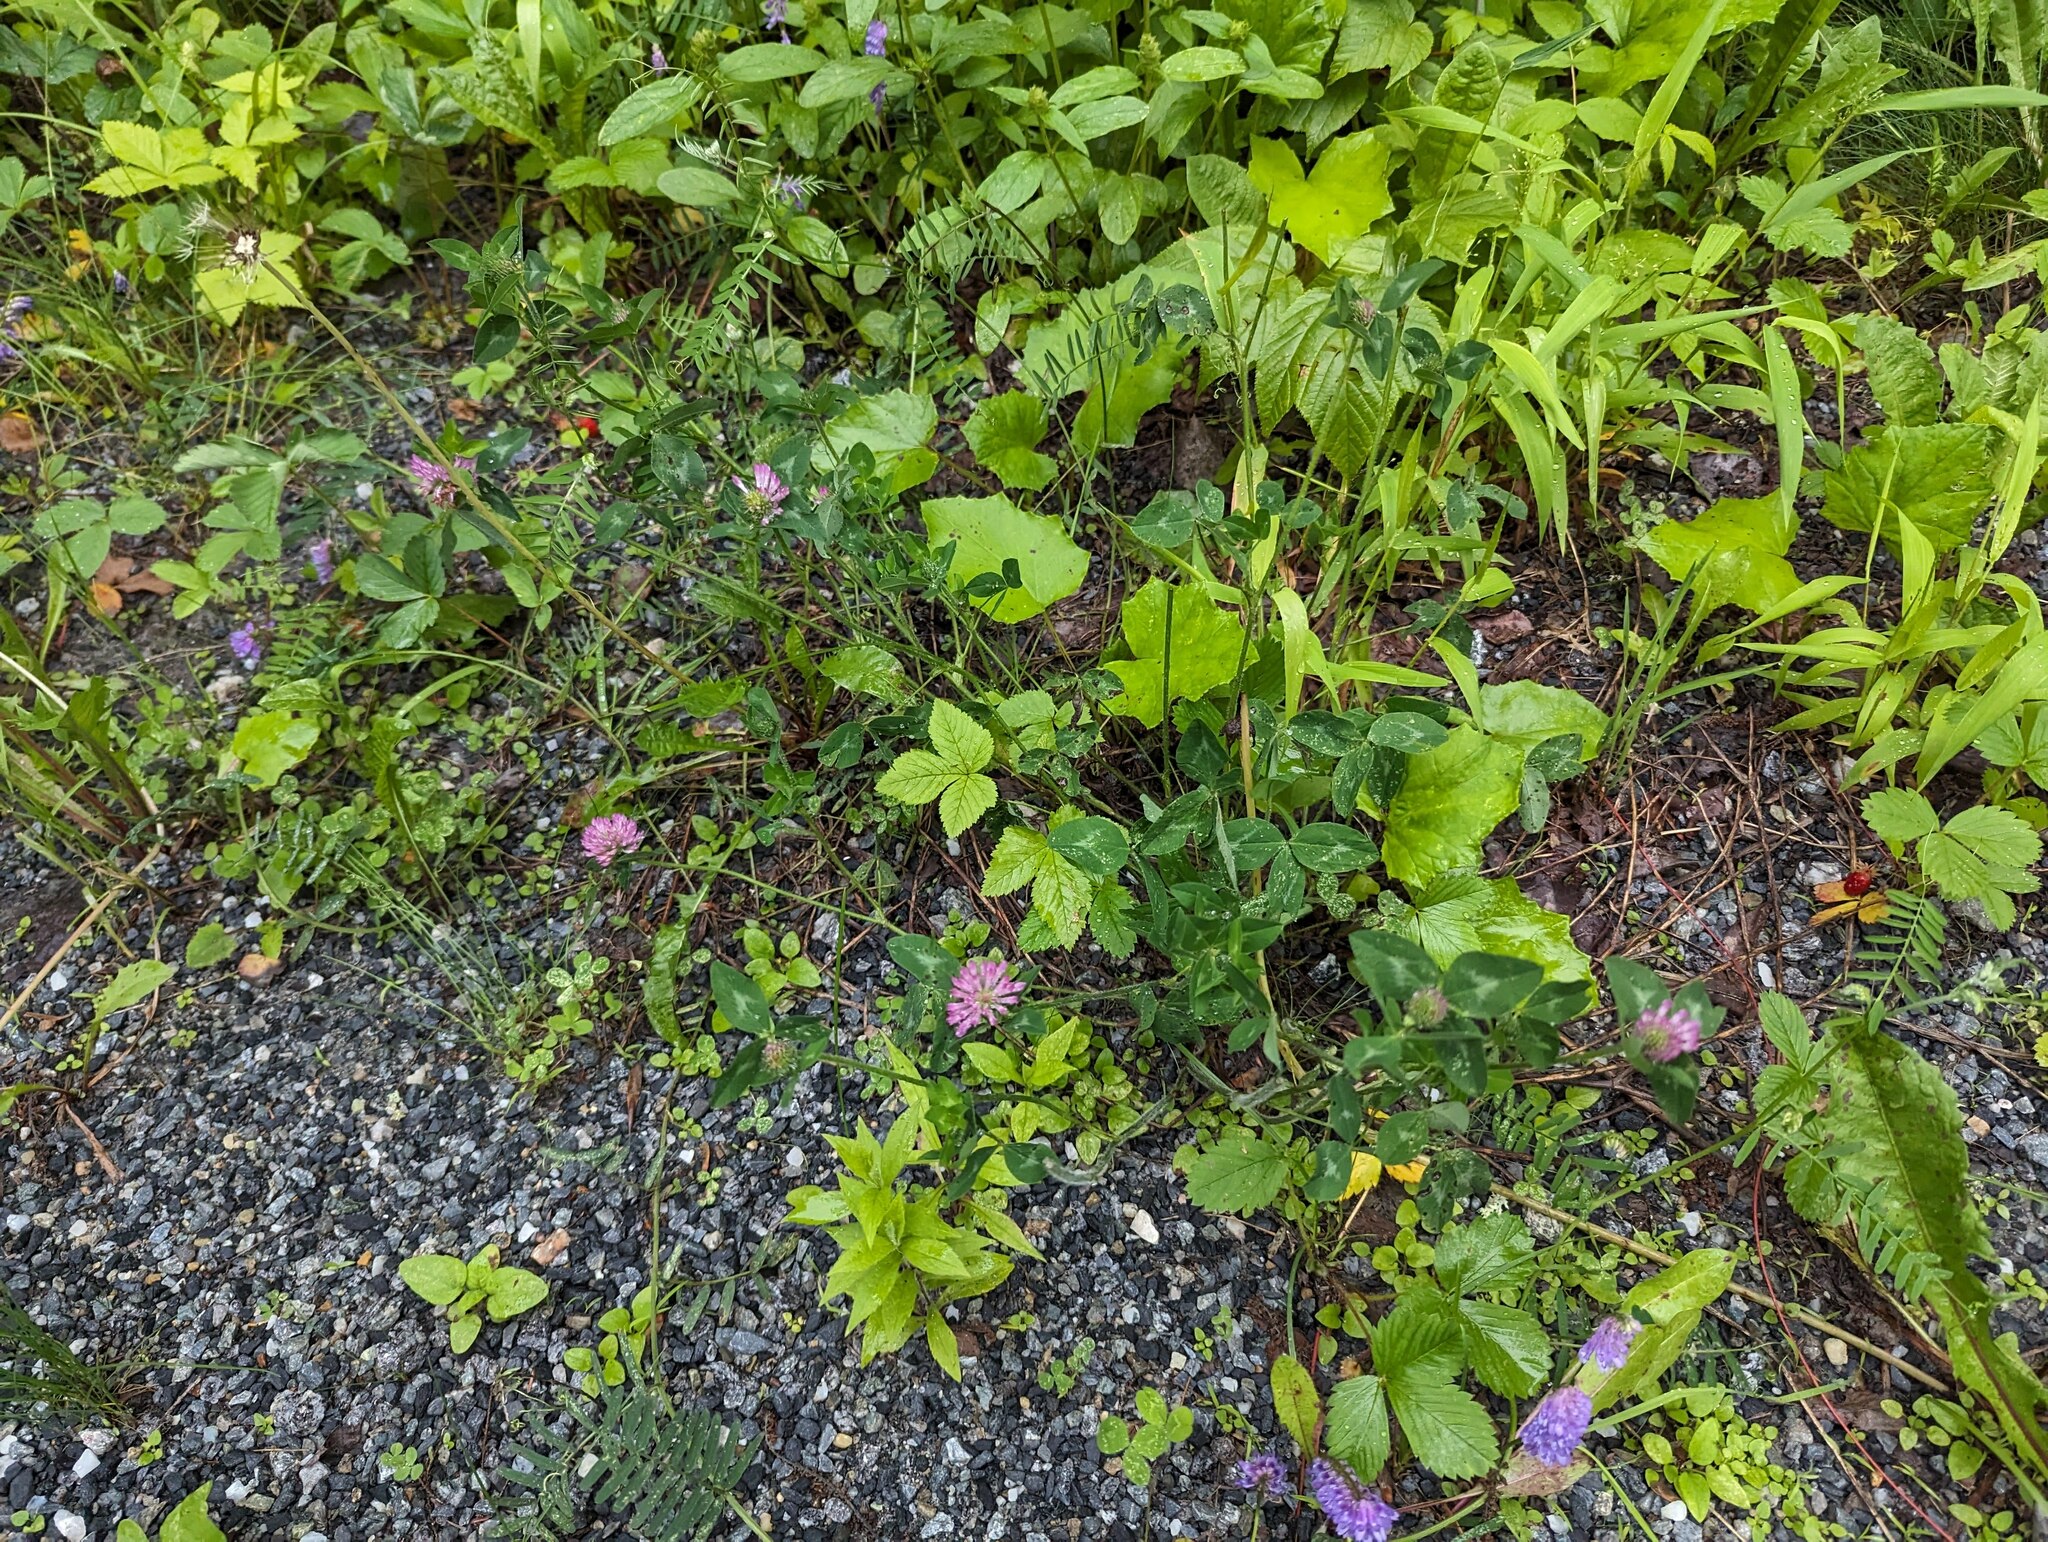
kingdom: Plantae
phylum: Tracheophyta
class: Magnoliopsida
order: Fabales
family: Fabaceae
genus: Trifolium
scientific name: Trifolium pratense
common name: Red clover
